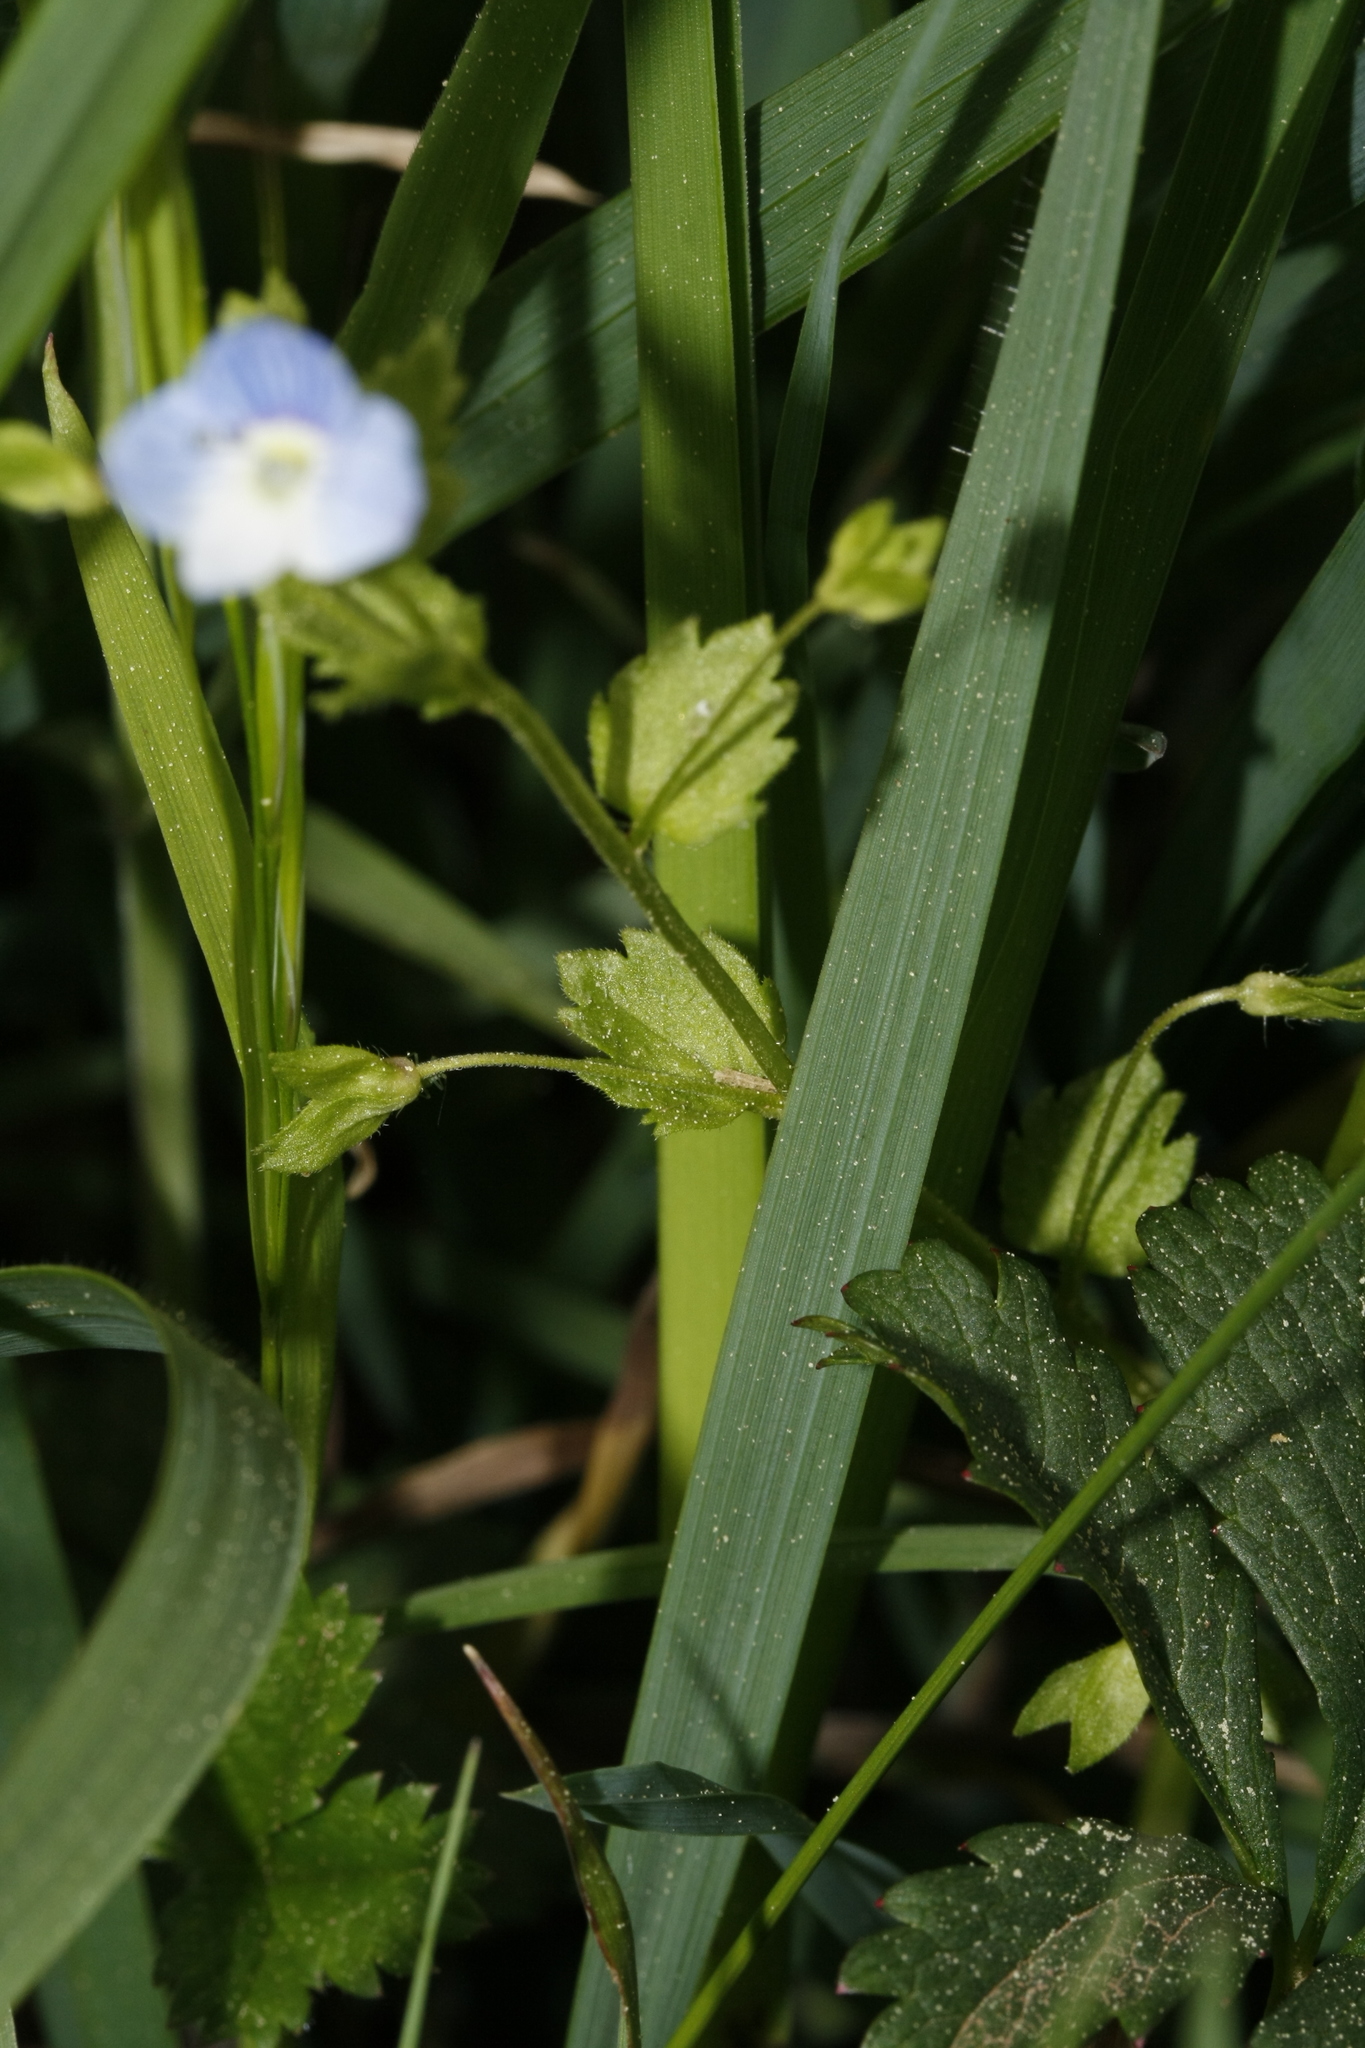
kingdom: Plantae
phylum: Tracheophyta
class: Magnoliopsida
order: Lamiales
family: Plantaginaceae
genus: Veronica
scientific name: Veronica persica
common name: Common field-speedwell
